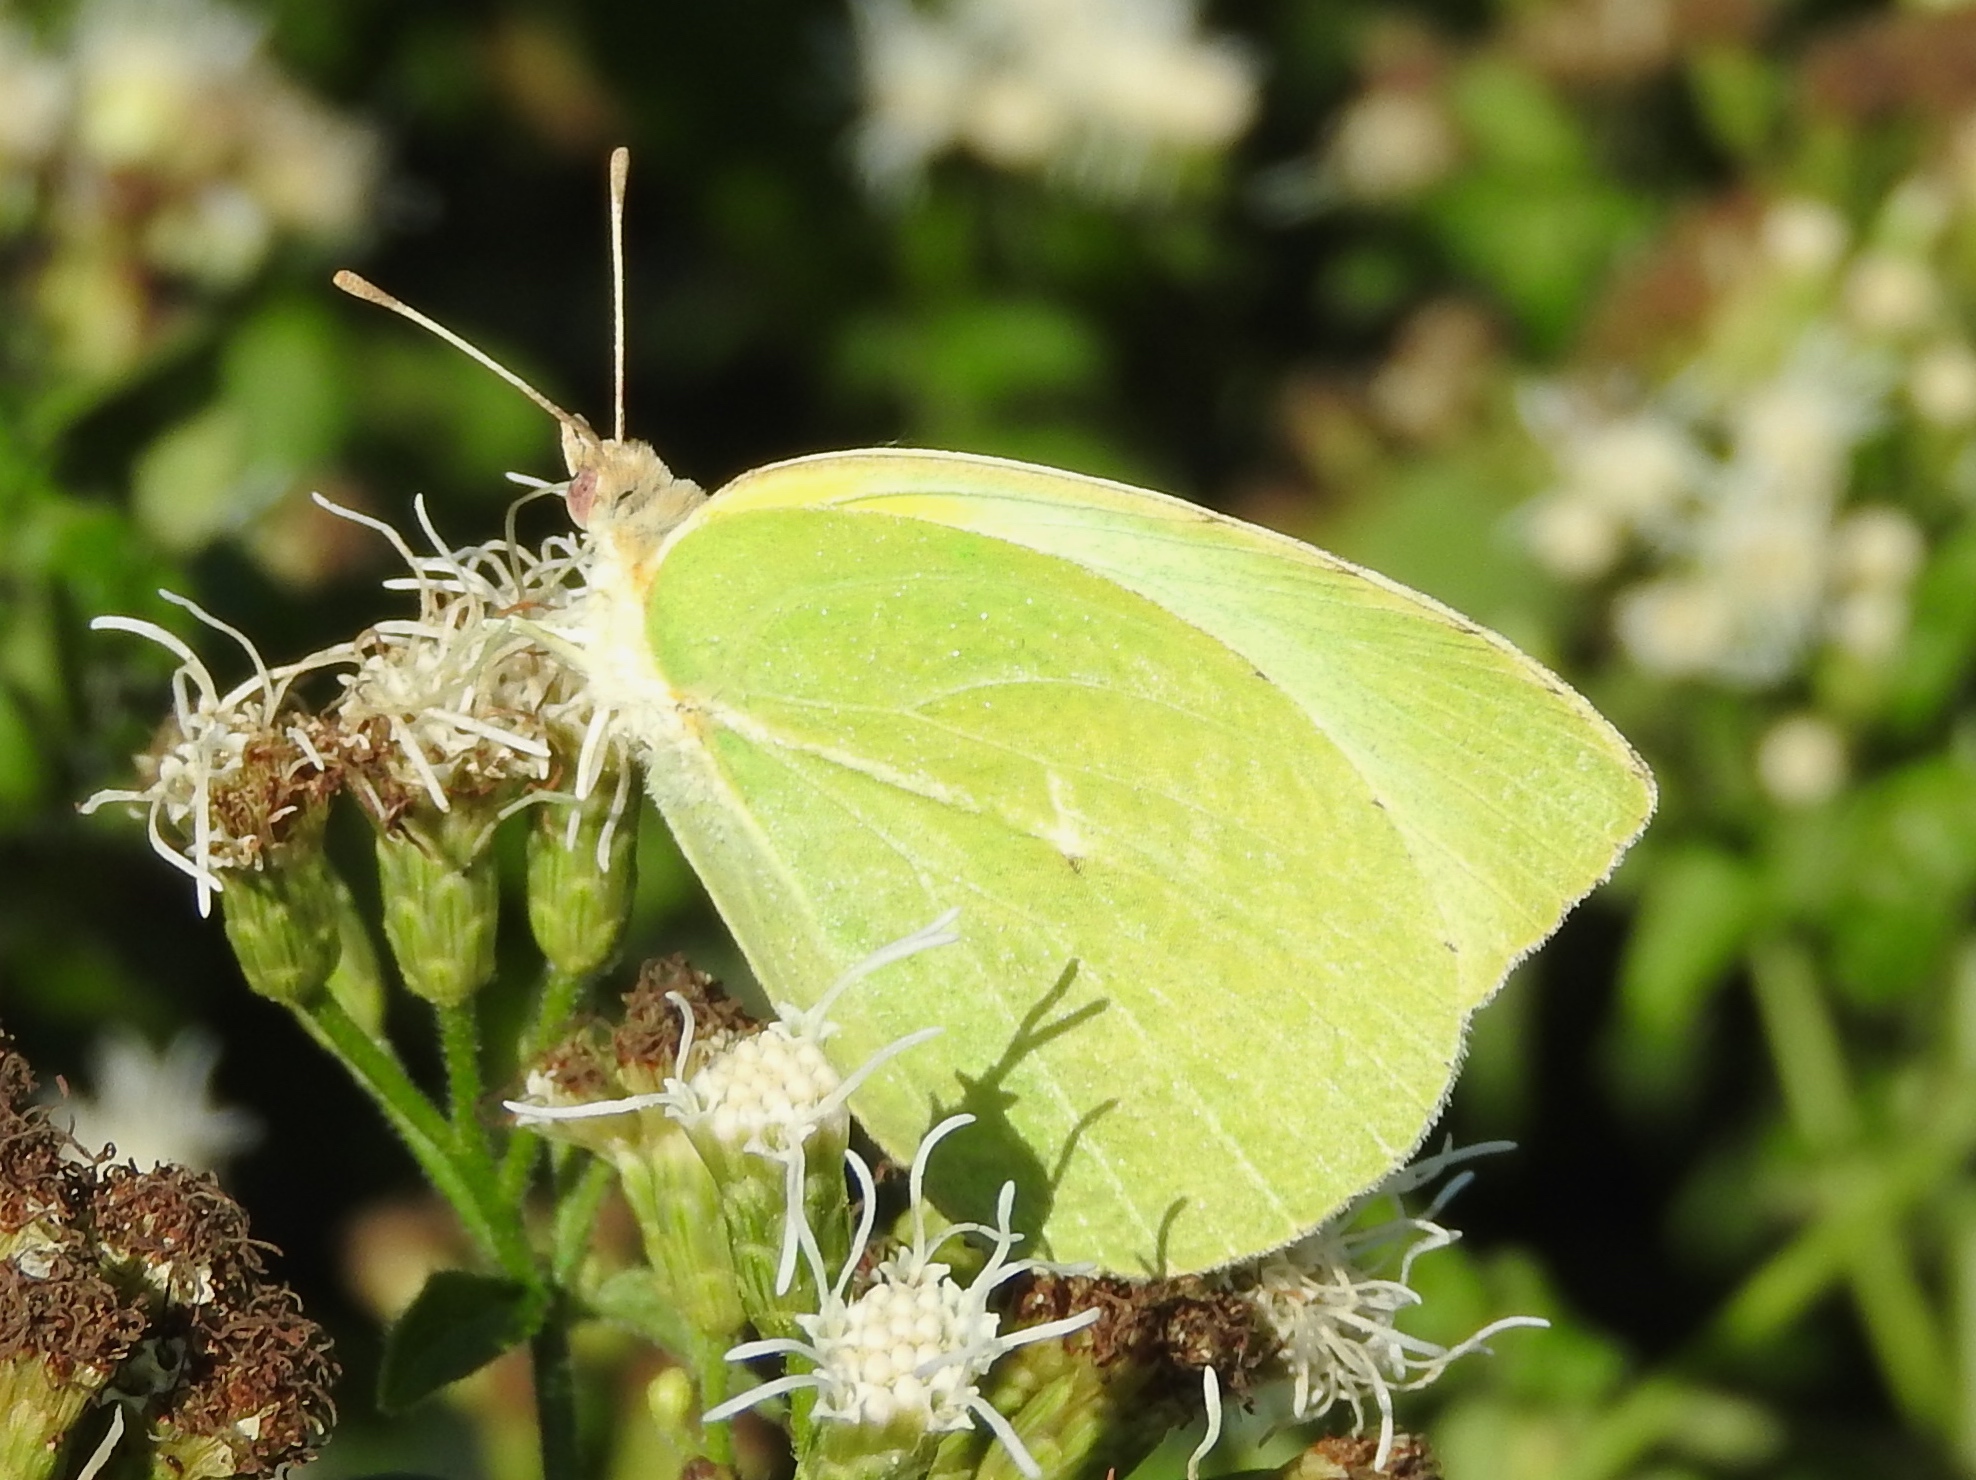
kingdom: Animalia
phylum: Arthropoda
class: Insecta
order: Lepidoptera
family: Pieridae
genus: Kricogonia
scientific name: Kricogonia lyside
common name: Guayacan sulphur,
